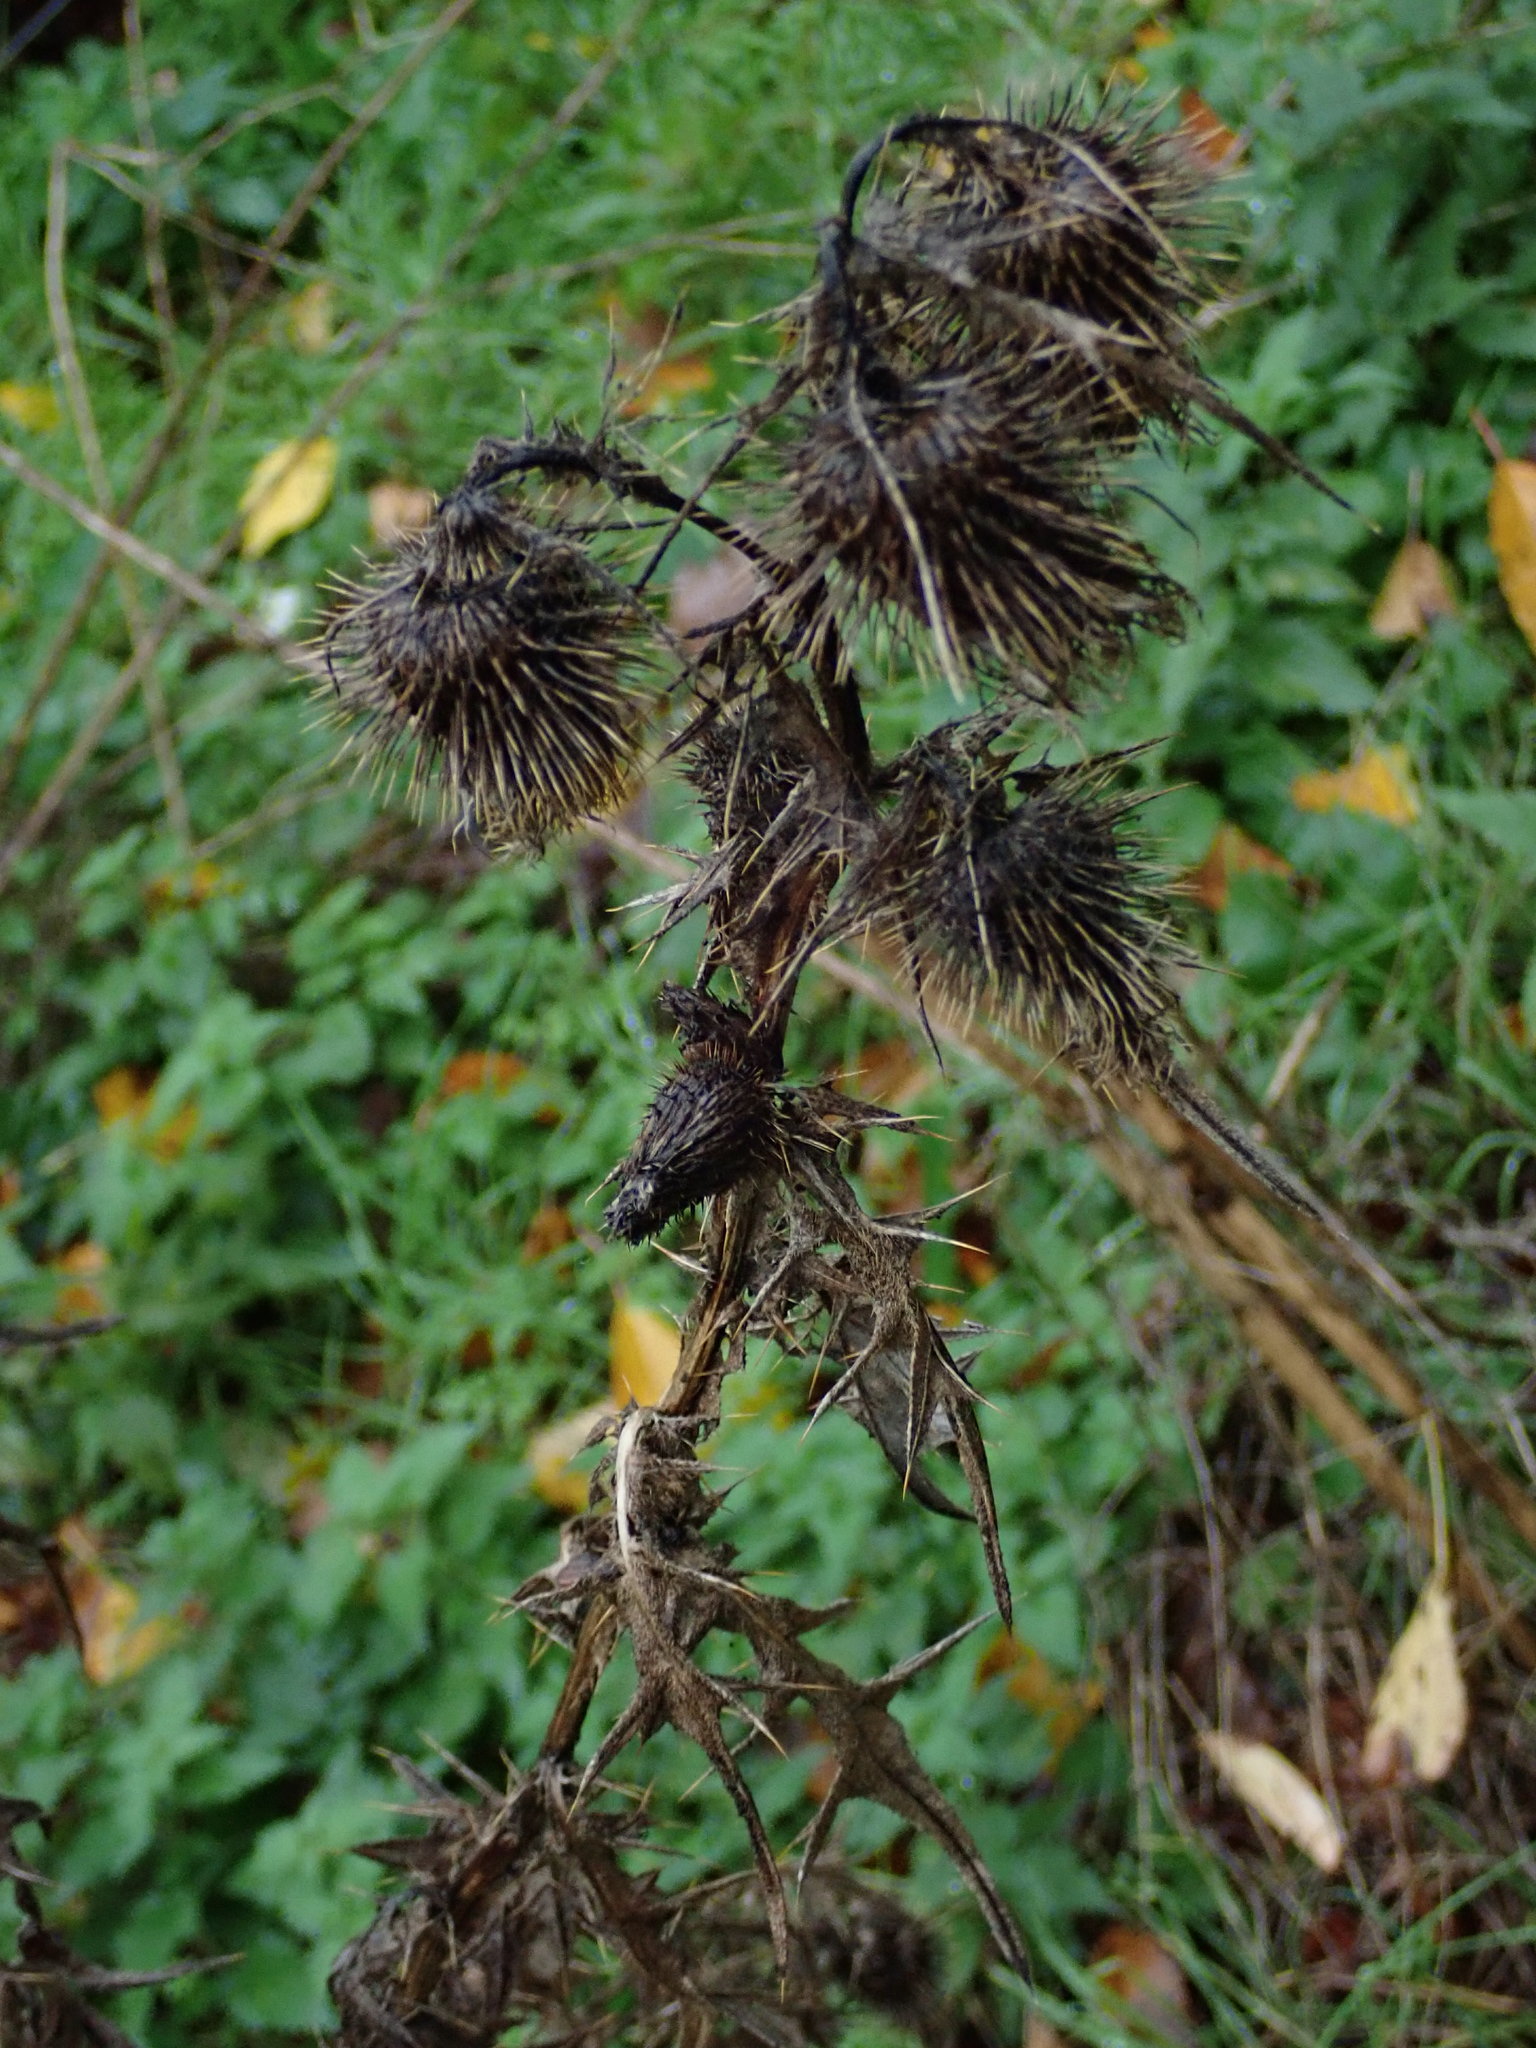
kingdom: Plantae
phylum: Tracheophyta
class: Magnoliopsida
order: Asterales
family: Asteraceae
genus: Cirsium
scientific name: Cirsium vulgare
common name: Bull thistle
